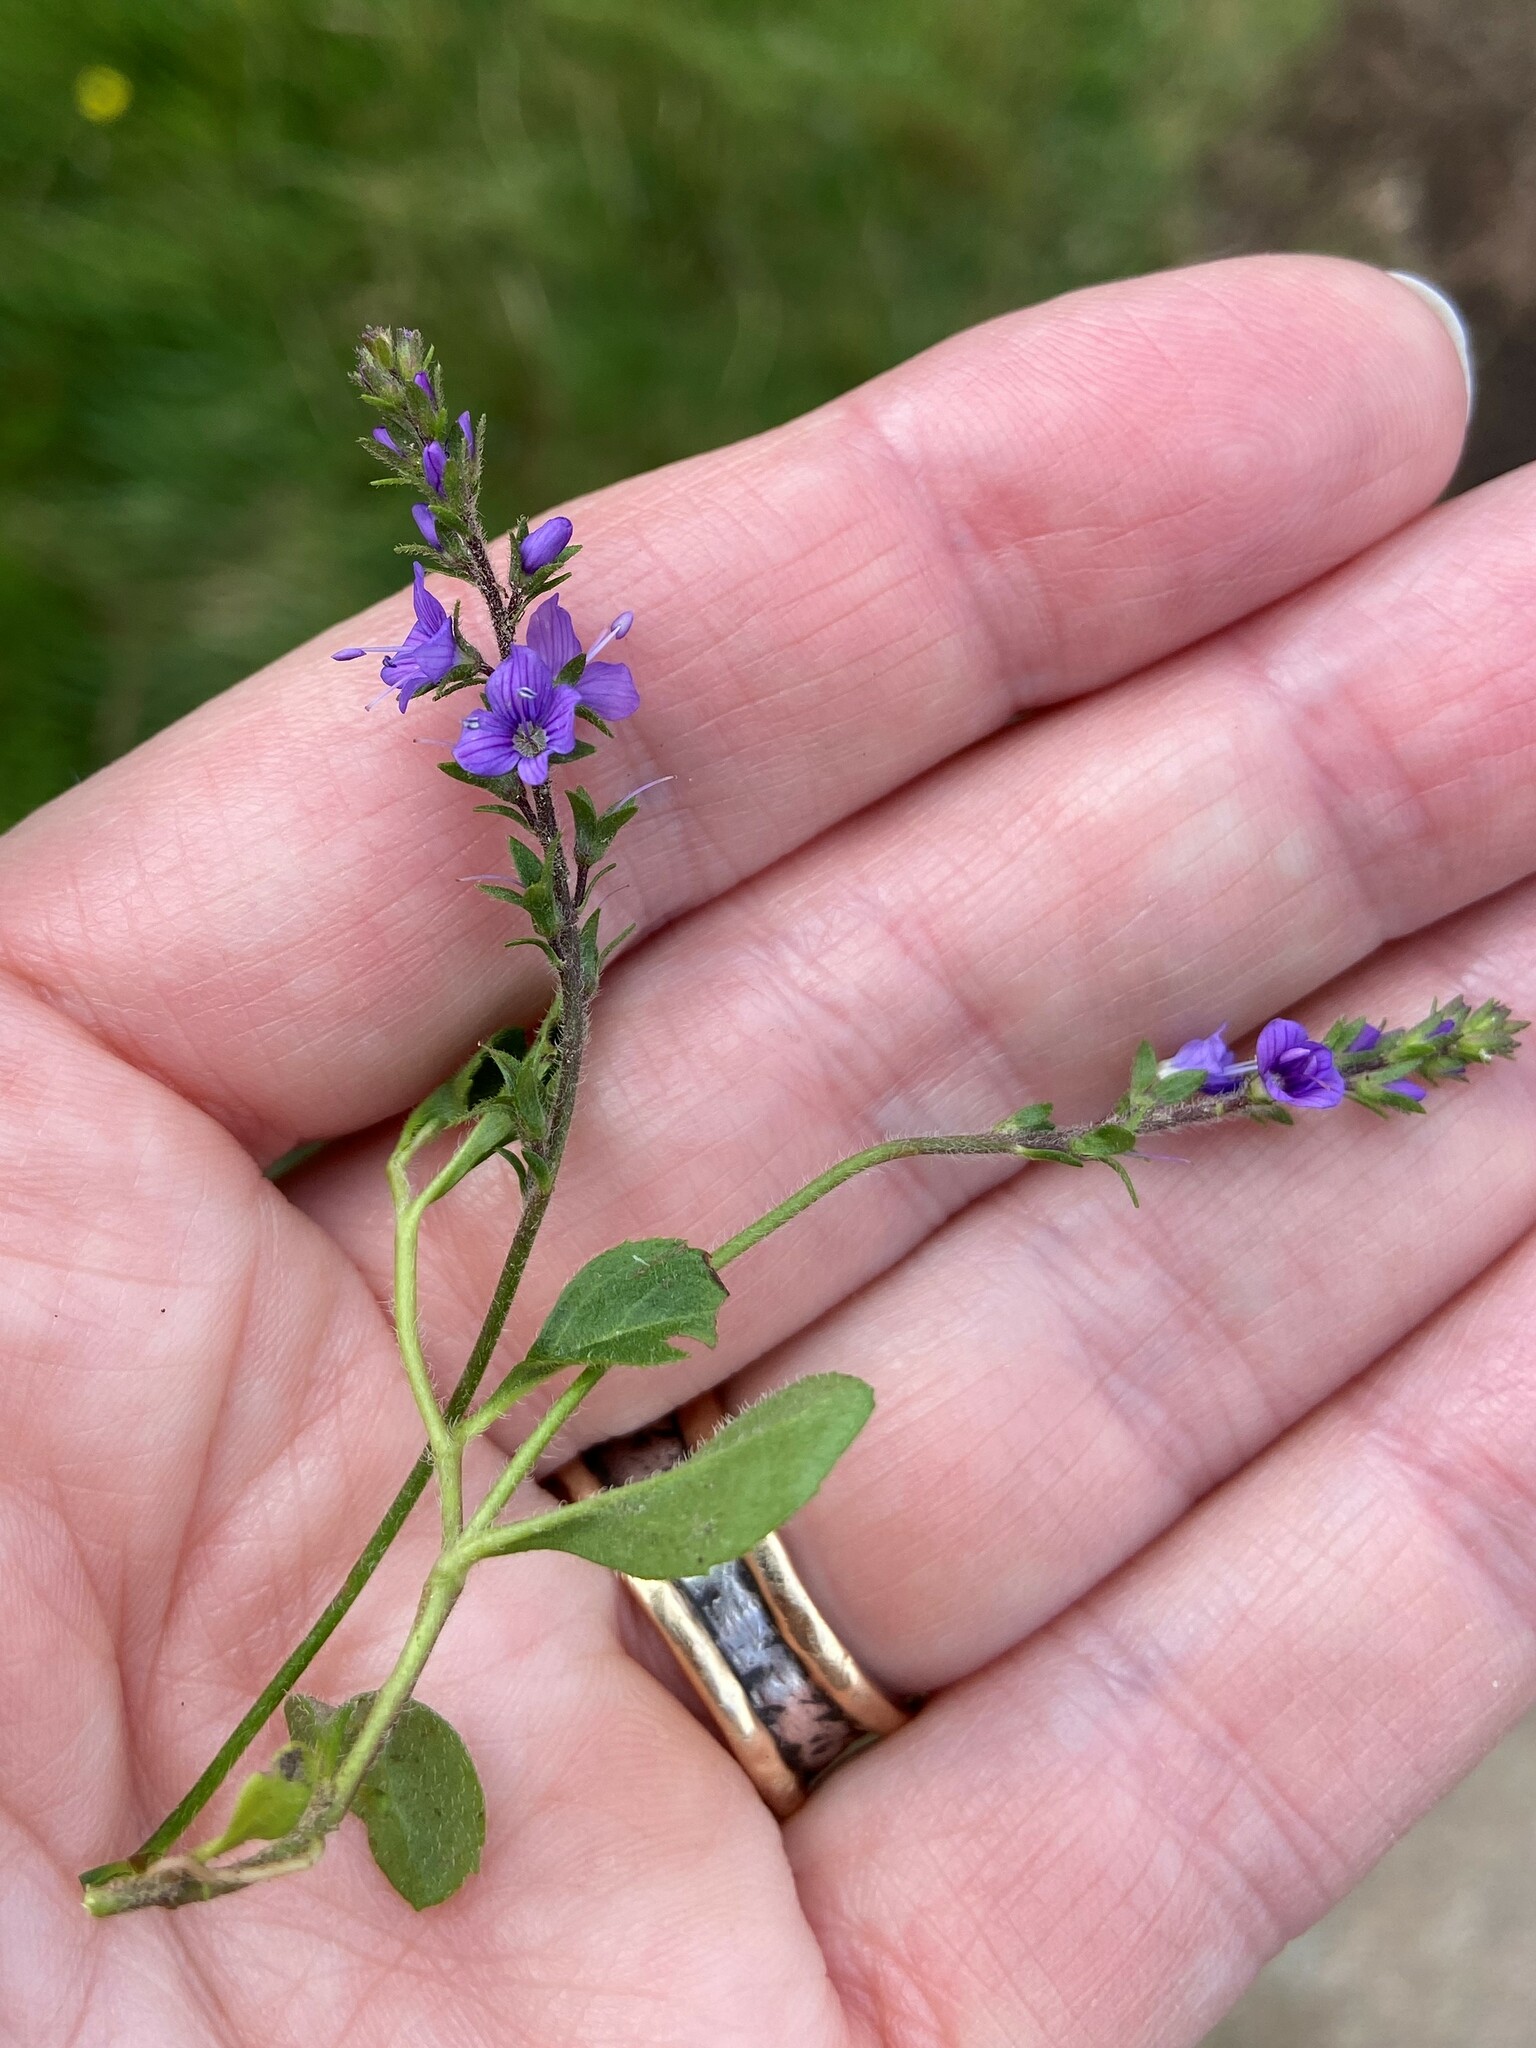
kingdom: Plantae
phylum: Tracheophyta
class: Magnoliopsida
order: Lamiales
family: Plantaginaceae
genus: Veronica
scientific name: Veronica officinalis
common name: Common speedwell
